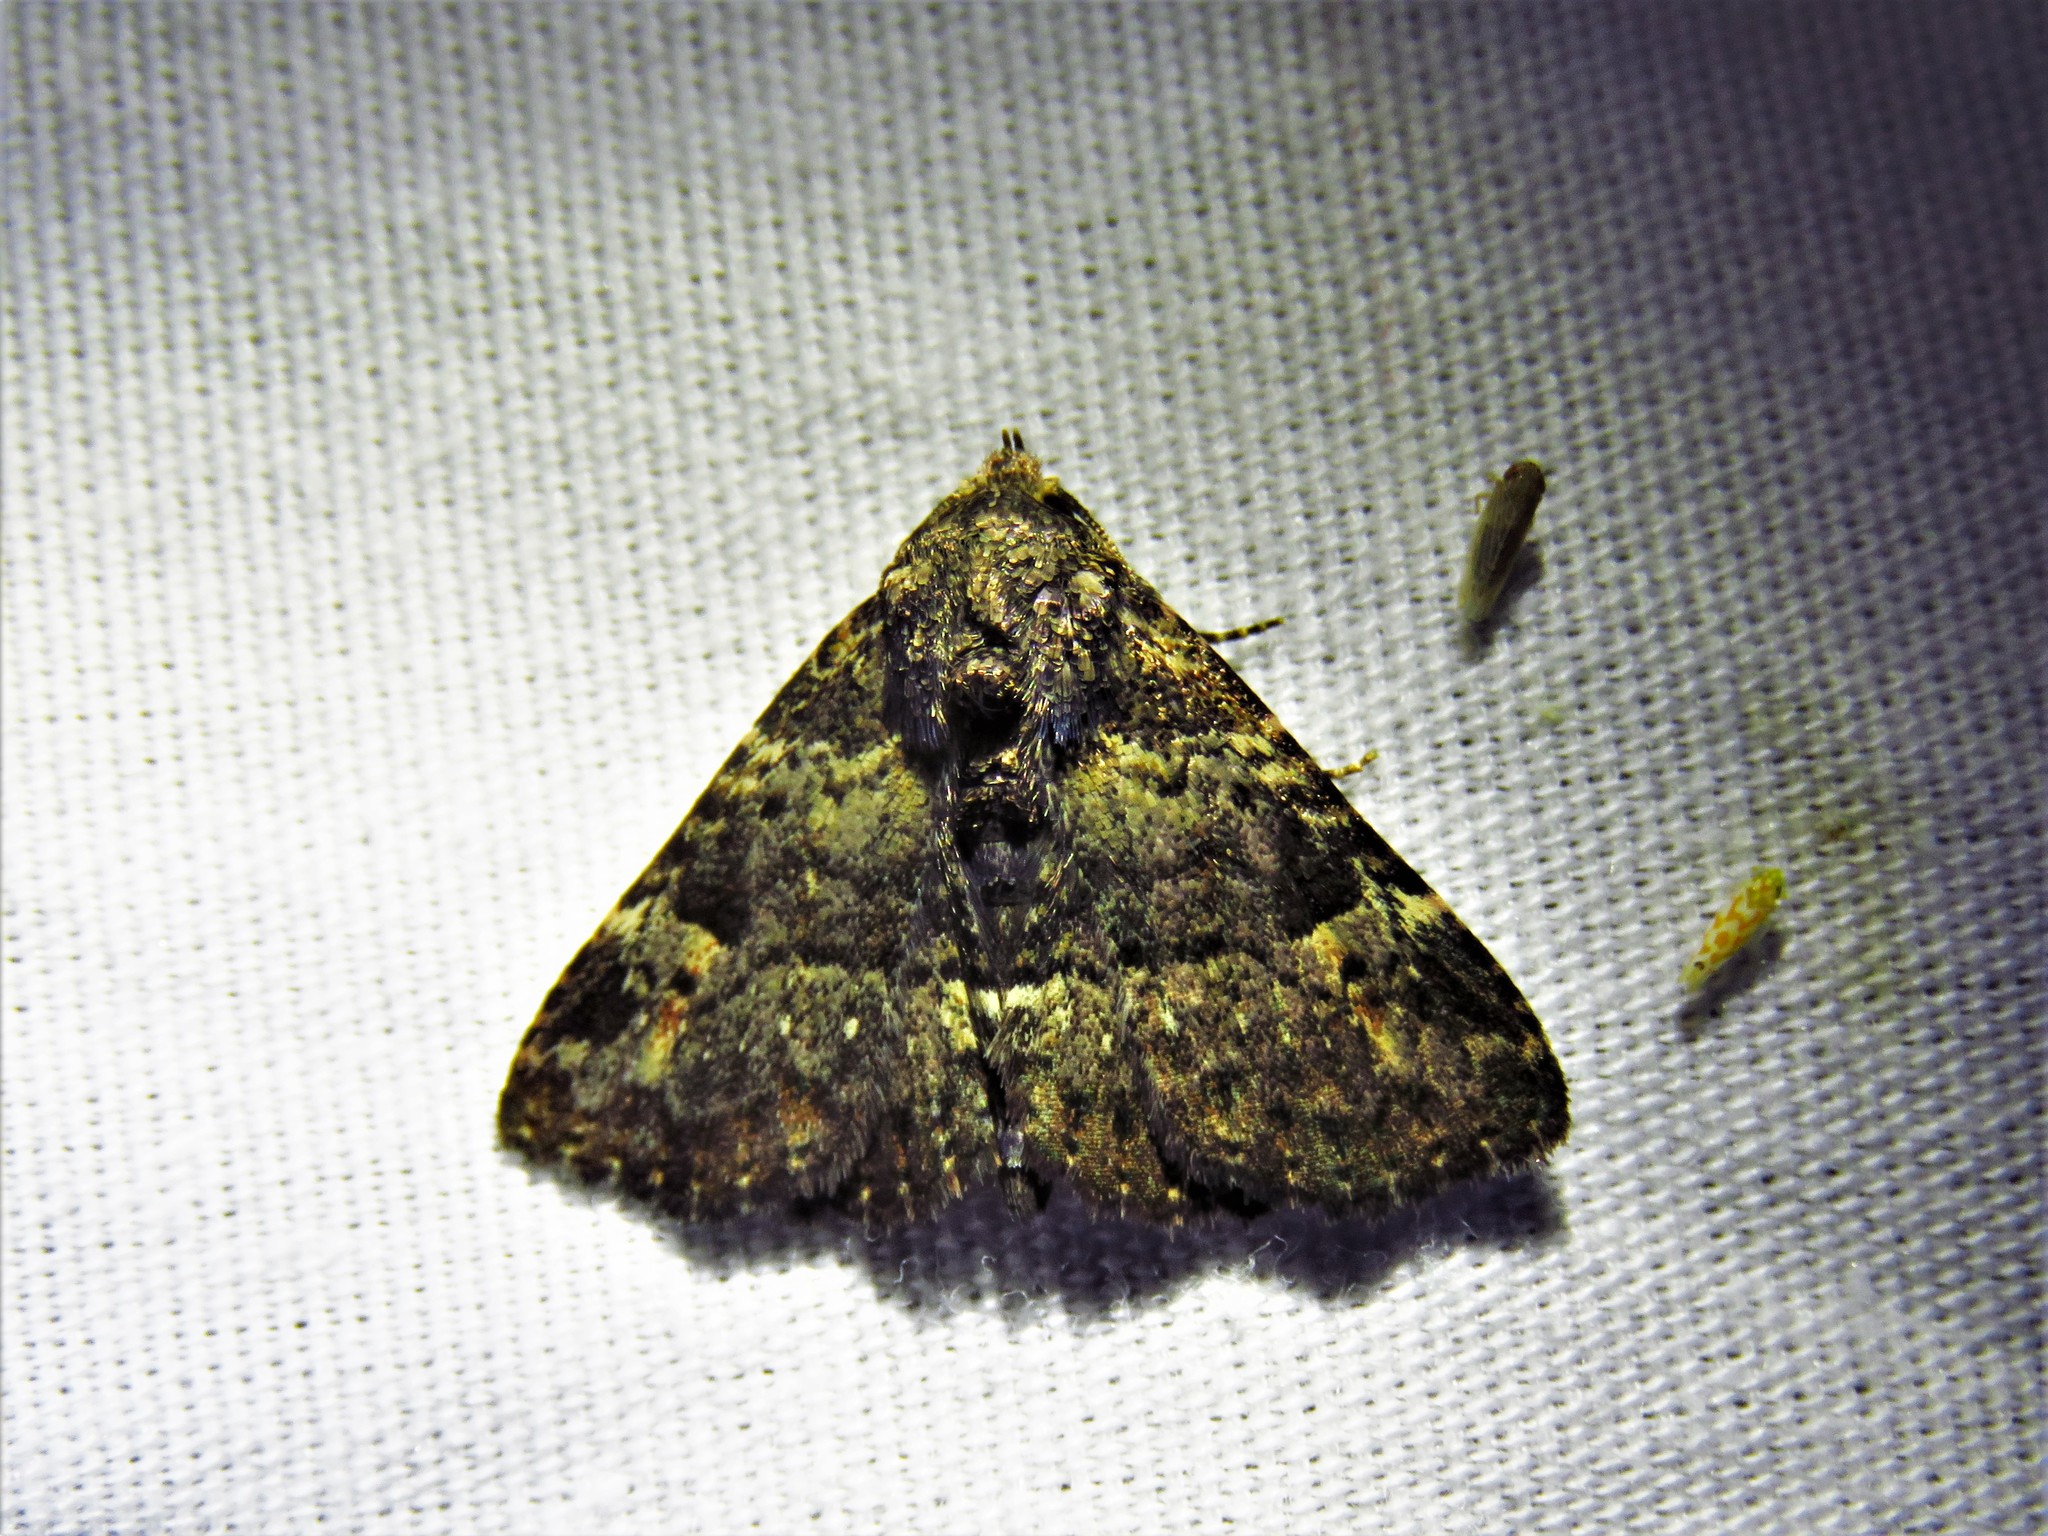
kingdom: Animalia
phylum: Arthropoda
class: Insecta
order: Lepidoptera
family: Erebidae
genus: Metalectra
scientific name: Metalectra discalis
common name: Common fungus moth
